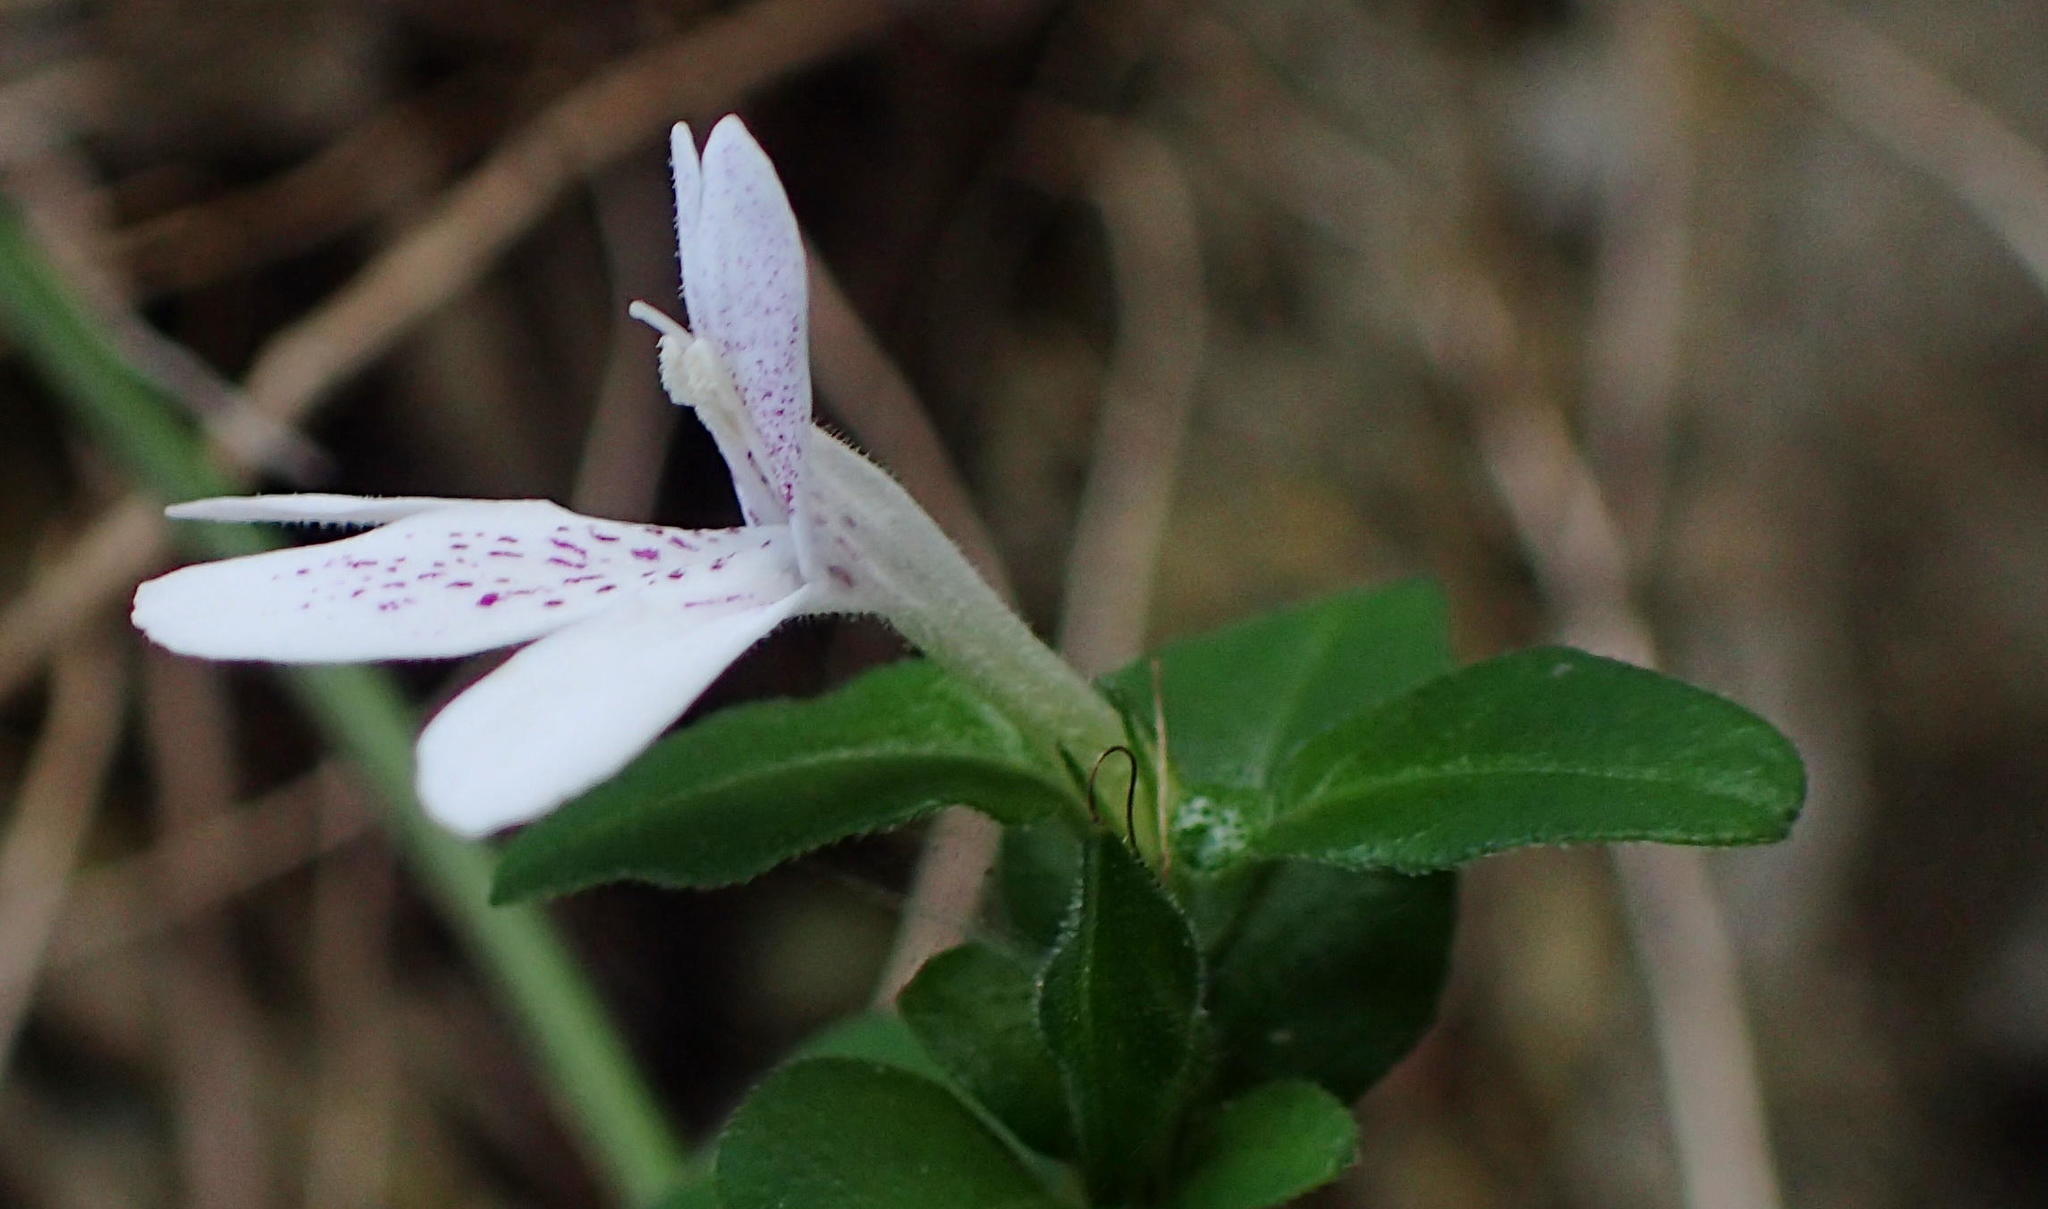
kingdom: Plantae
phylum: Tracheophyta
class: Magnoliopsida
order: Lamiales
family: Acanthaceae
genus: Justicia
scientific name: Justicia tubulosa
